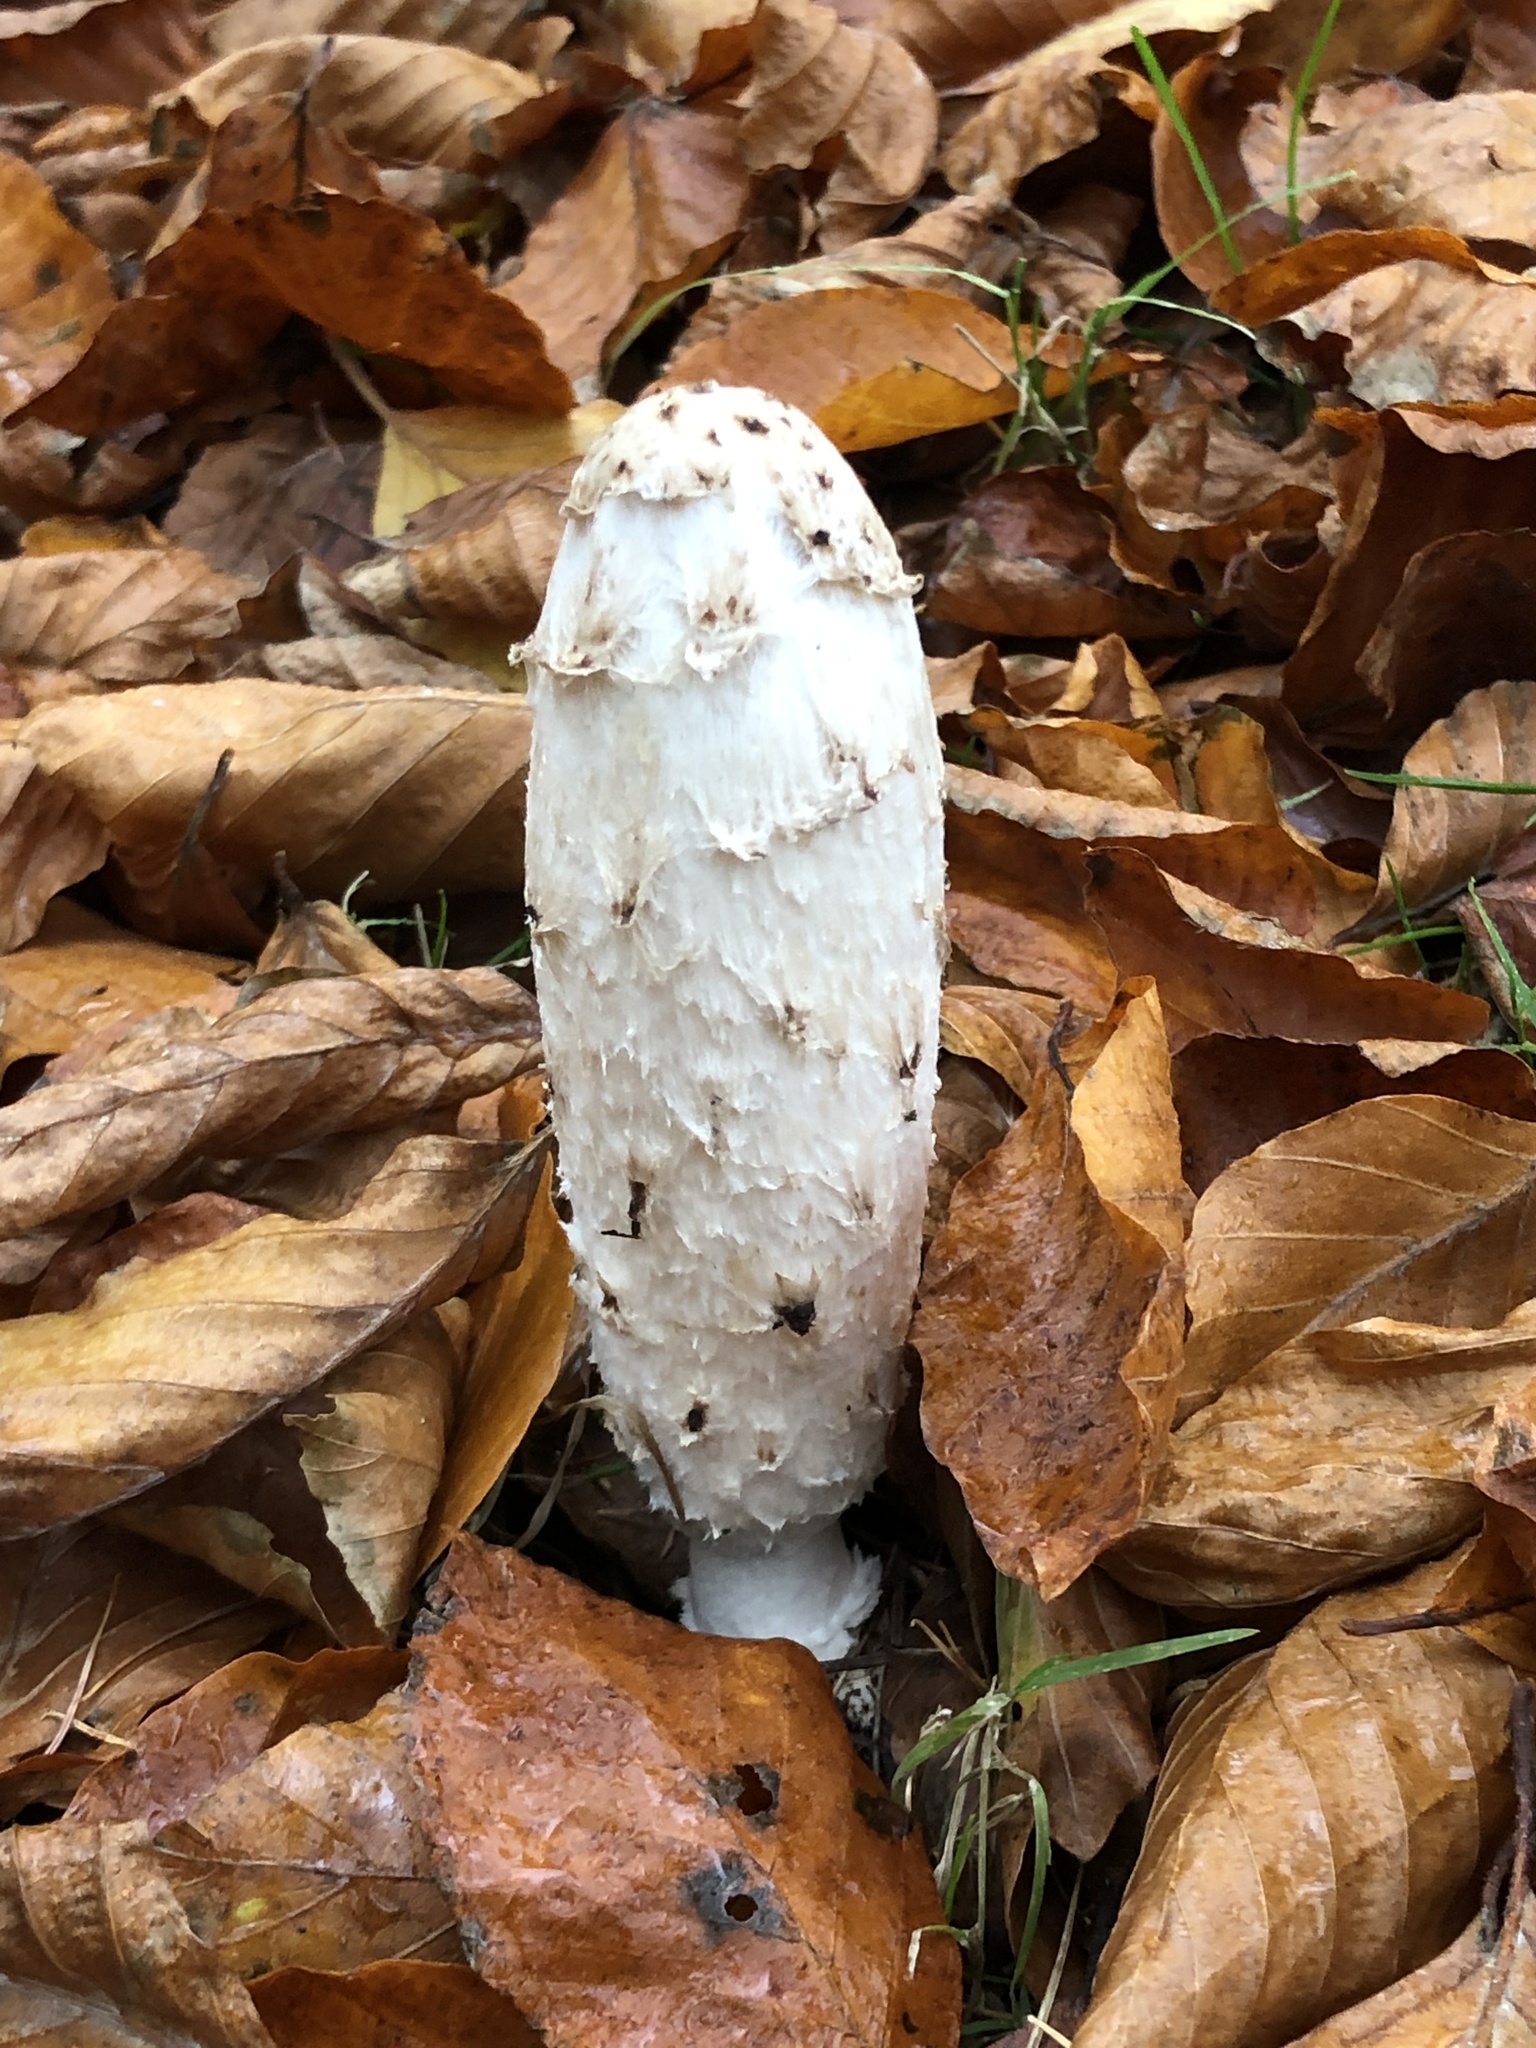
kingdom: Fungi
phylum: Basidiomycota
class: Agaricomycetes
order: Agaricales
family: Agaricaceae
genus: Coprinus
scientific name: Coprinus comatus
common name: Lawyer's wig
